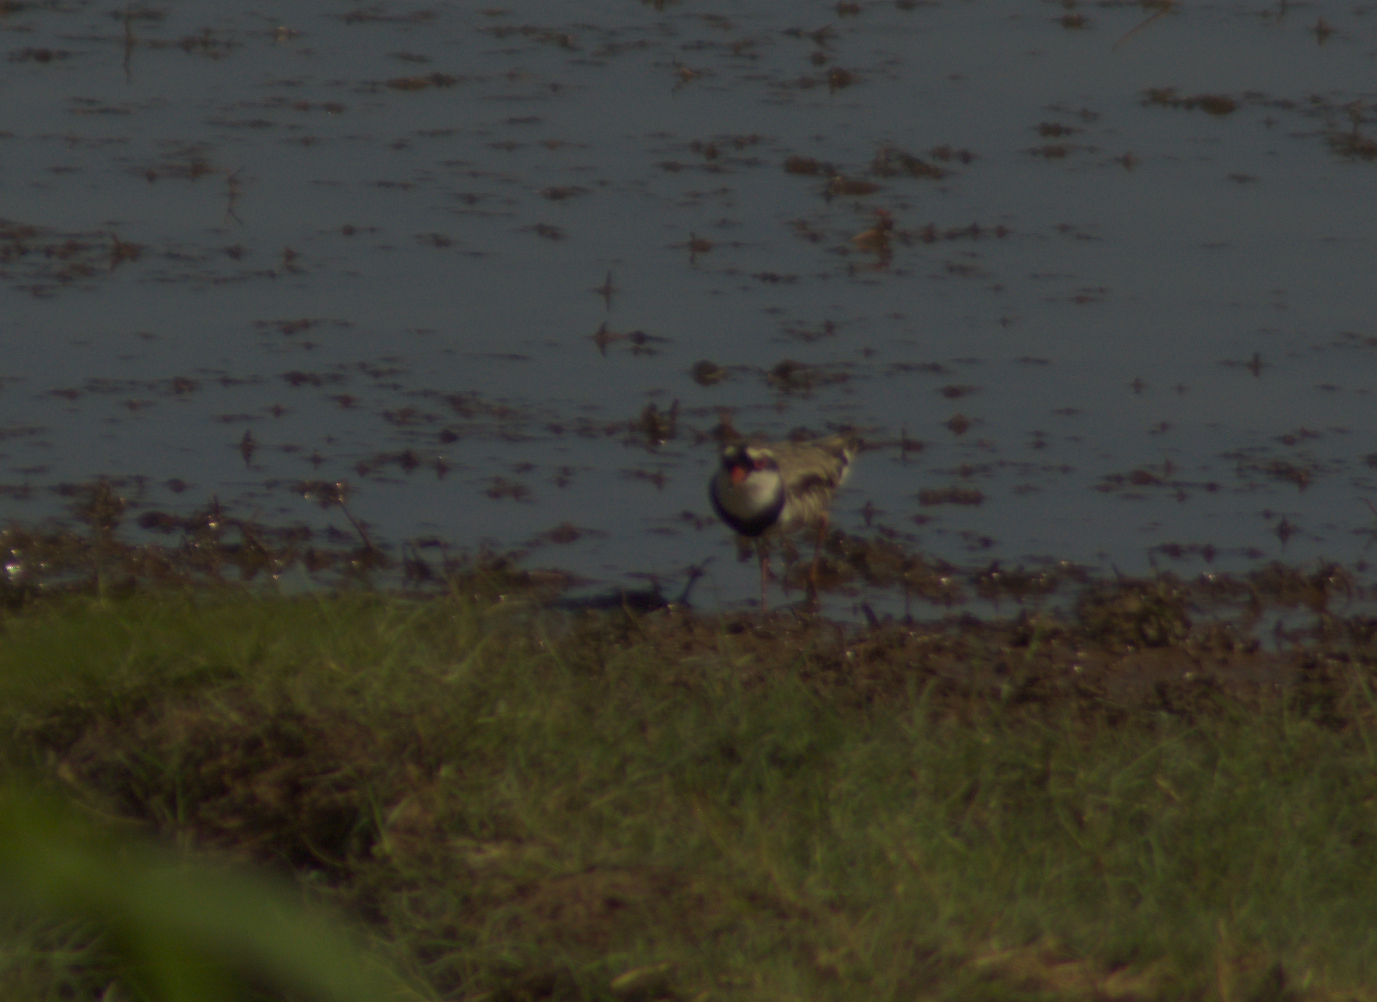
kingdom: Animalia
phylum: Chordata
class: Aves
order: Charadriiformes
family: Charadriidae
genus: Elseyornis
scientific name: Elseyornis melanops
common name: Black-fronted dotterel
